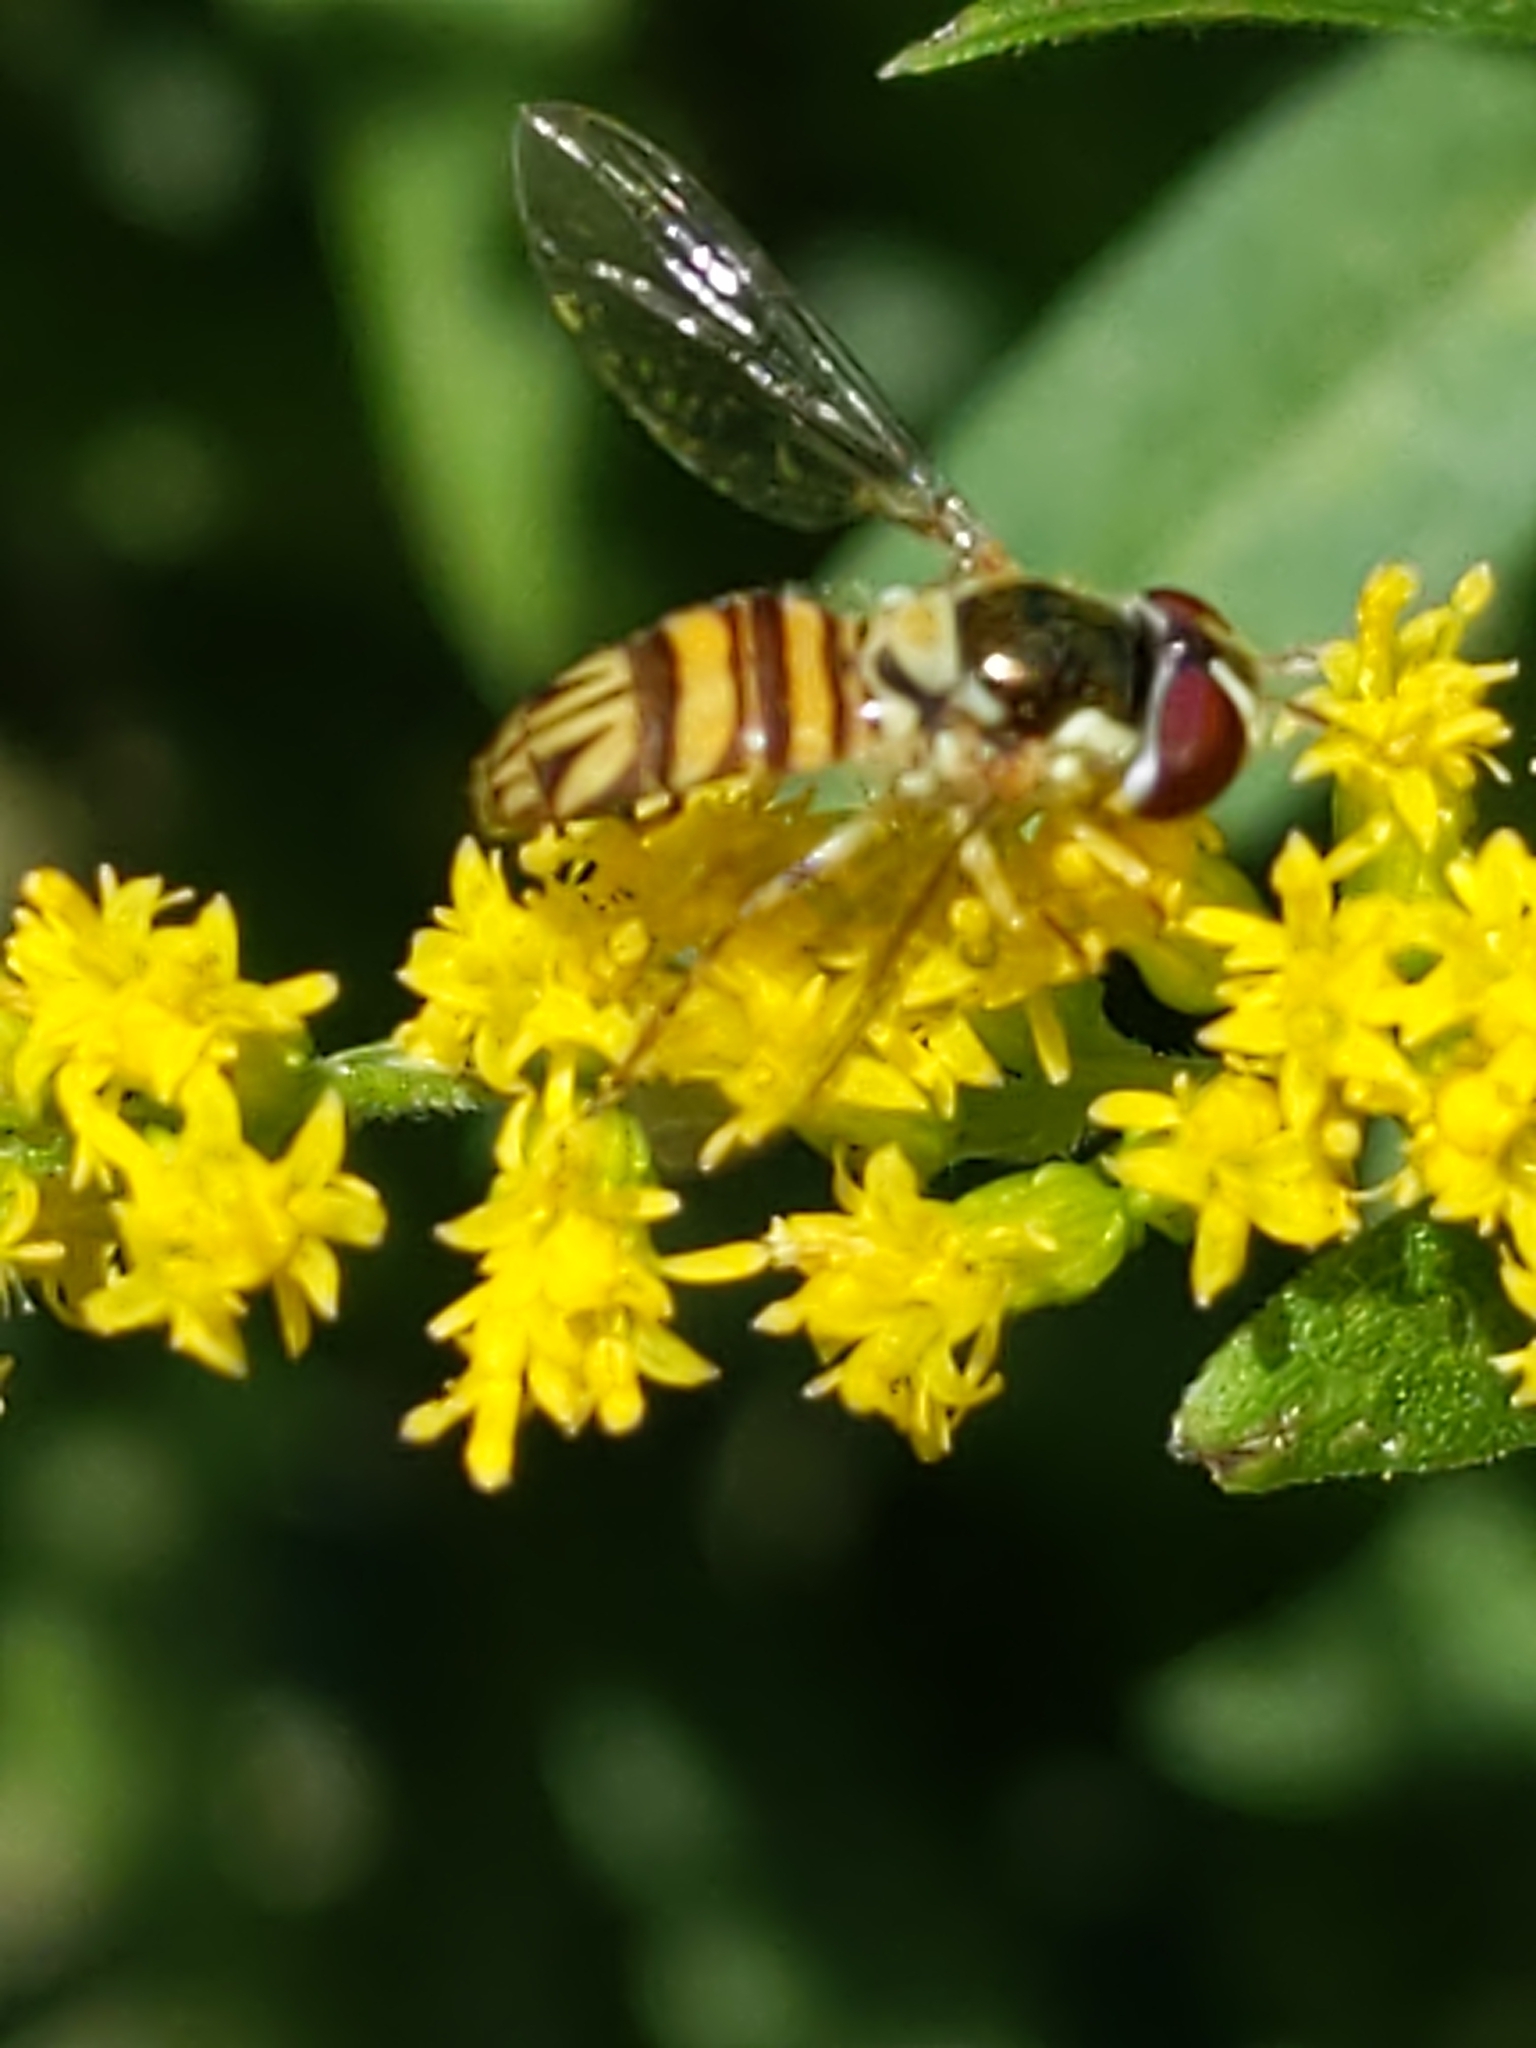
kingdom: Animalia
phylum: Arthropoda
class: Insecta
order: Diptera
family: Syrphidae
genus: Allograpta
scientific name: Allograpta obliqua
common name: Common oblique syrphid
